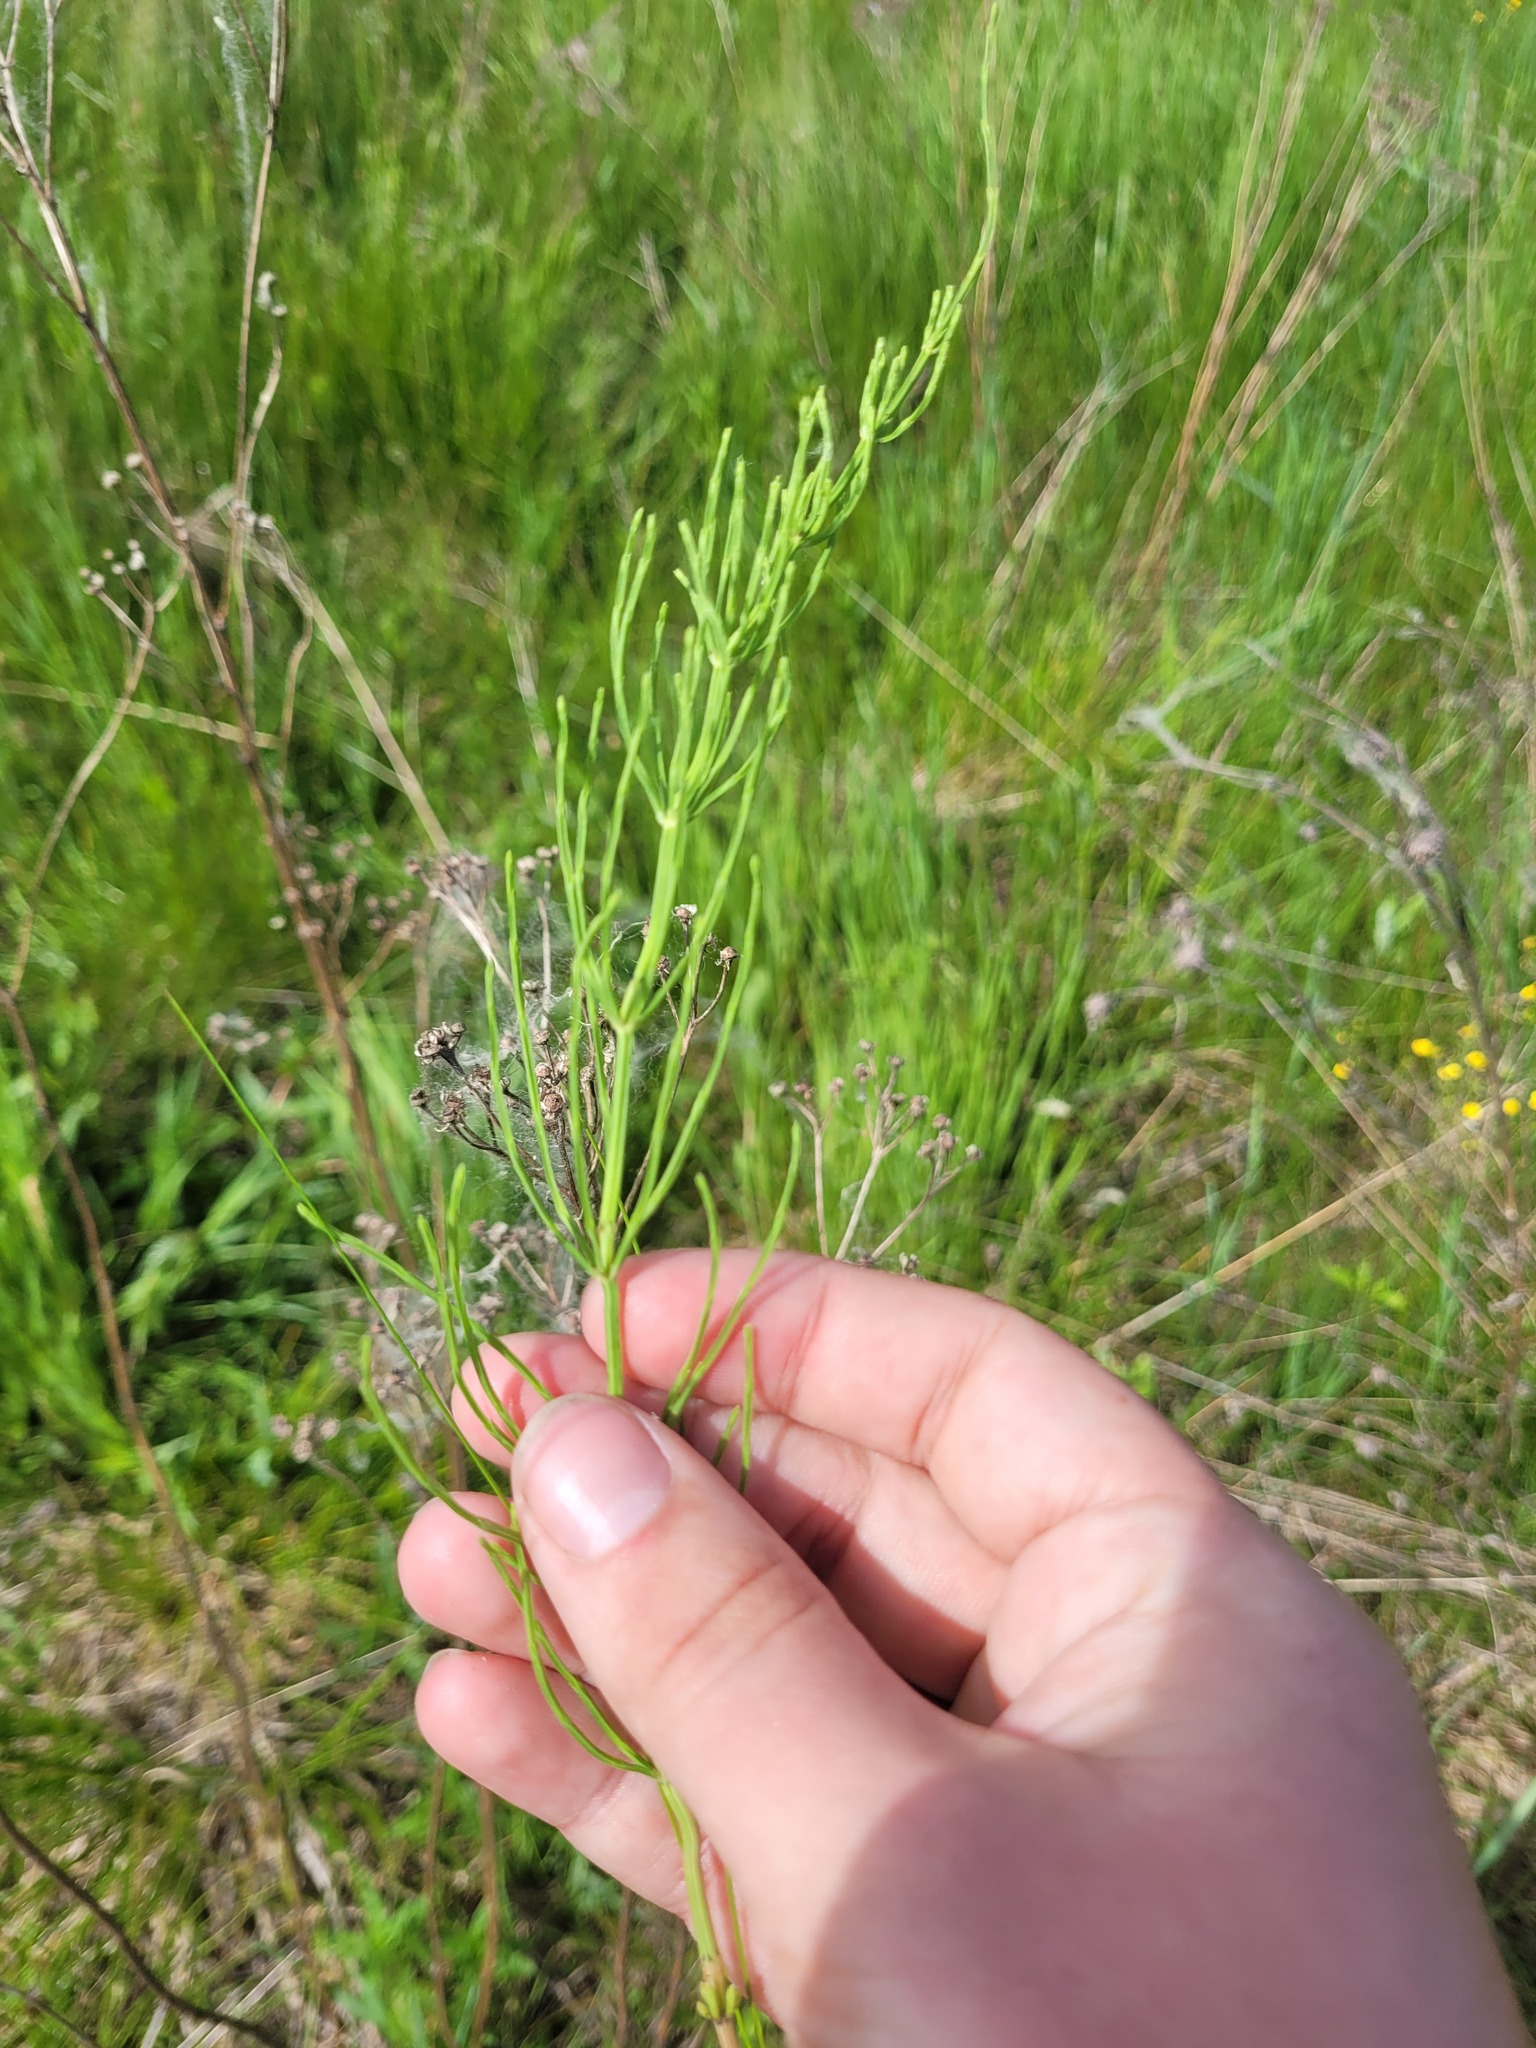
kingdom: Plantae
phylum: Tracheophyta
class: Polypodiopsida
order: Equisetales
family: Equisetaceae
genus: Equisetum
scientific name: Equisetum arvense
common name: Field horsetail
